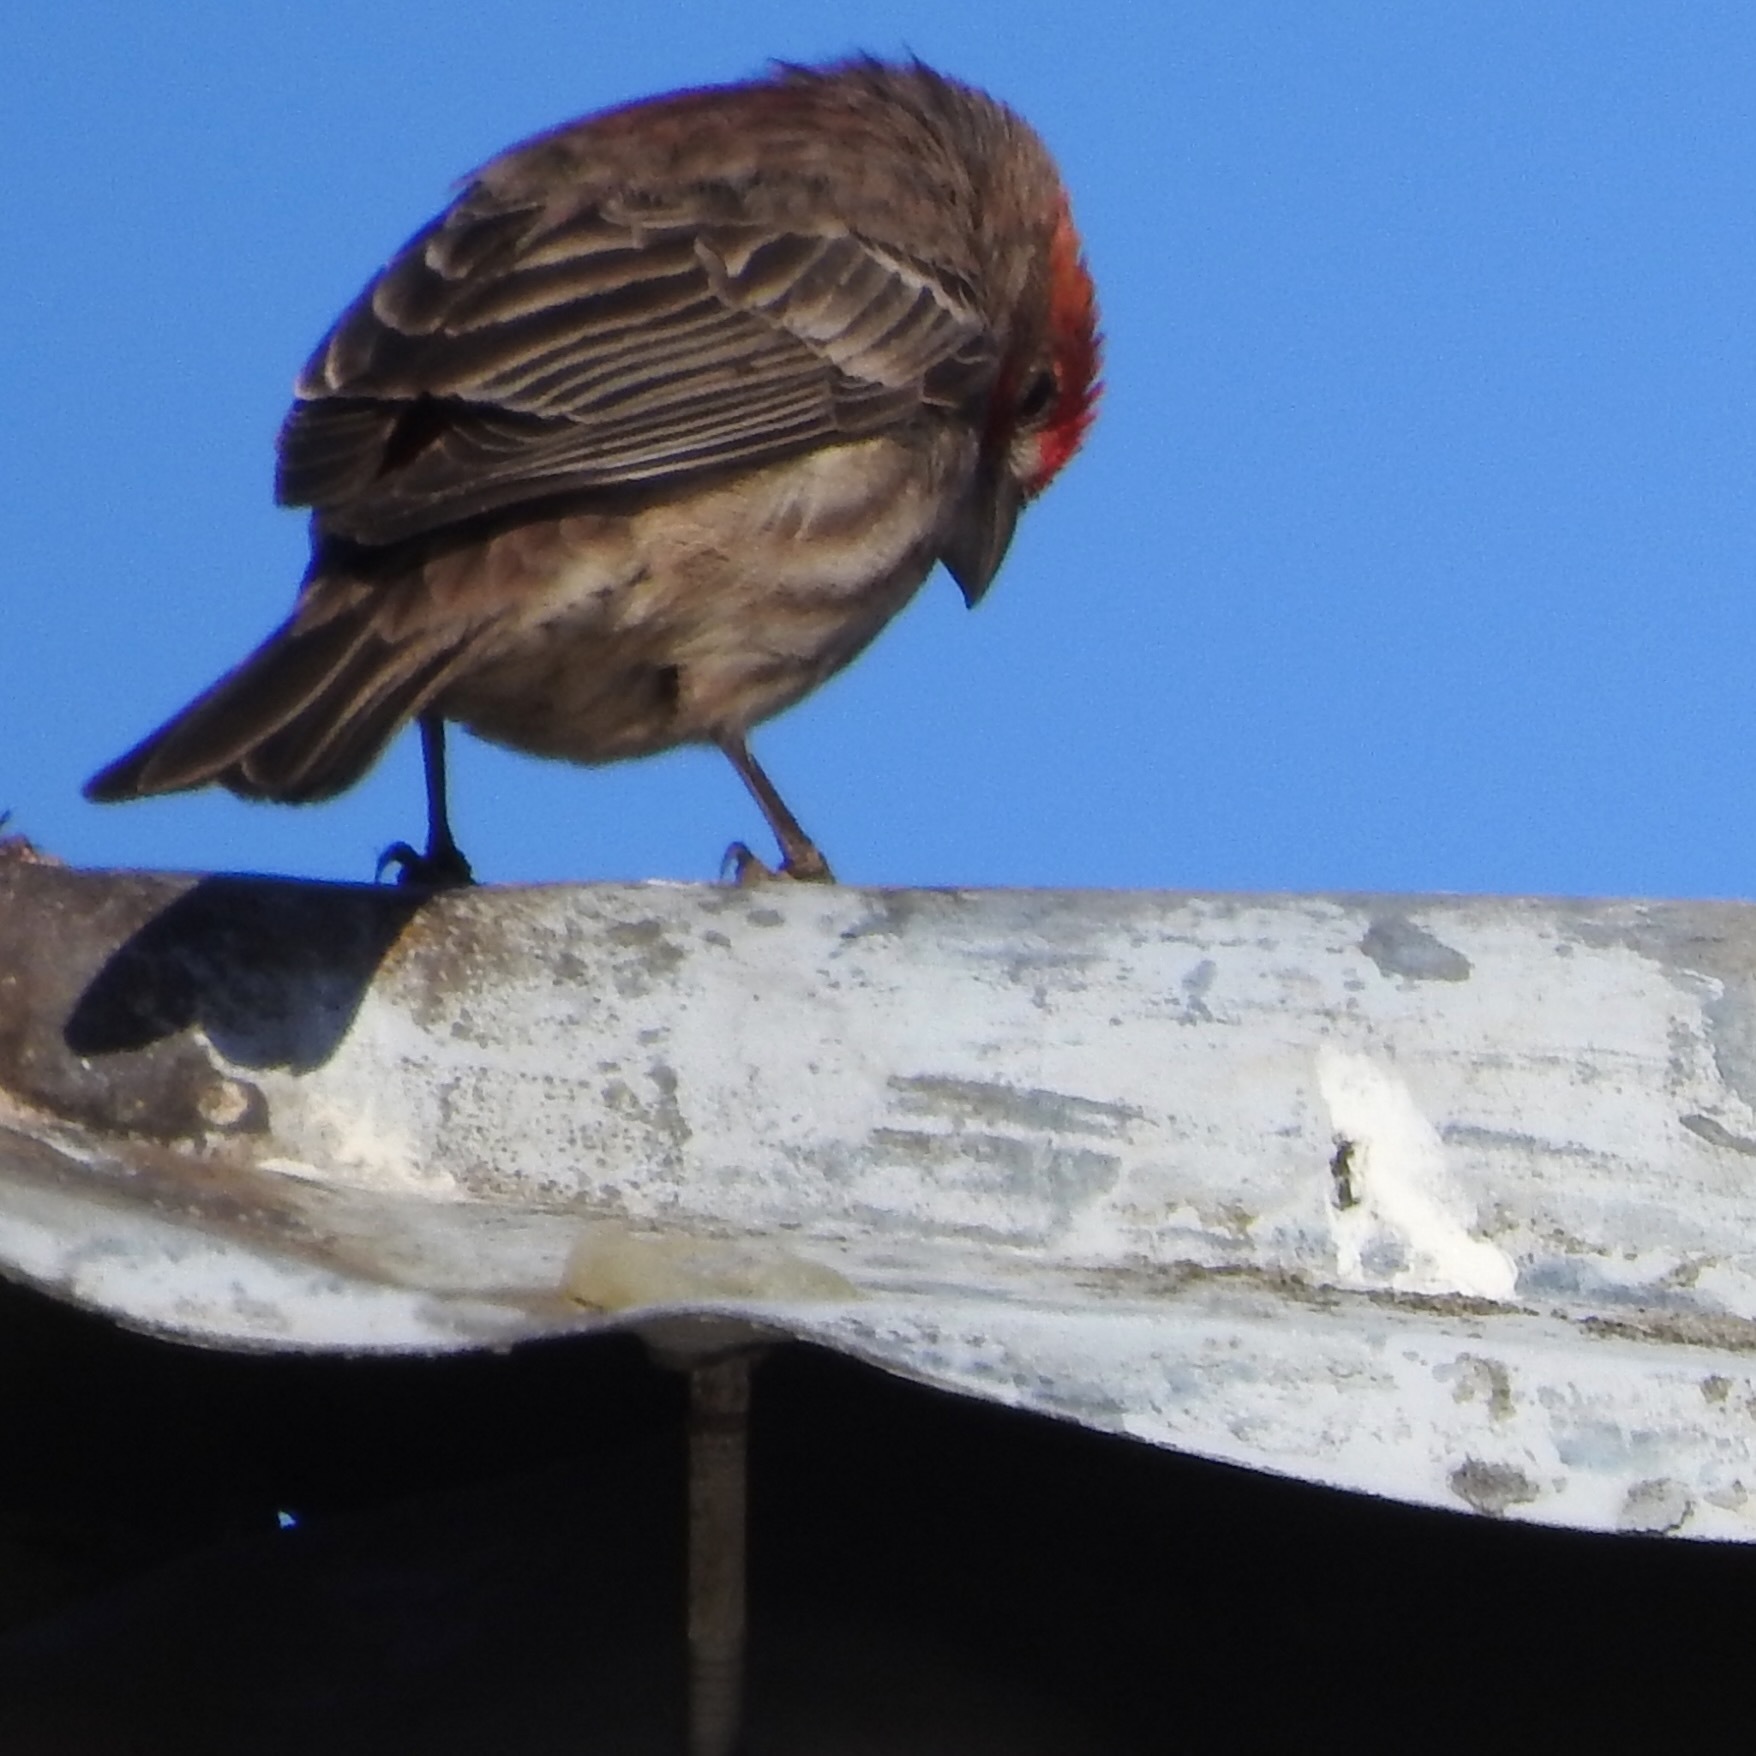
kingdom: Animalia
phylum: Chordata
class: Aves
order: Passeriformes
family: Fringillidae
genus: Haemorhous
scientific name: Haemorhous mexicanus
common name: House finch
